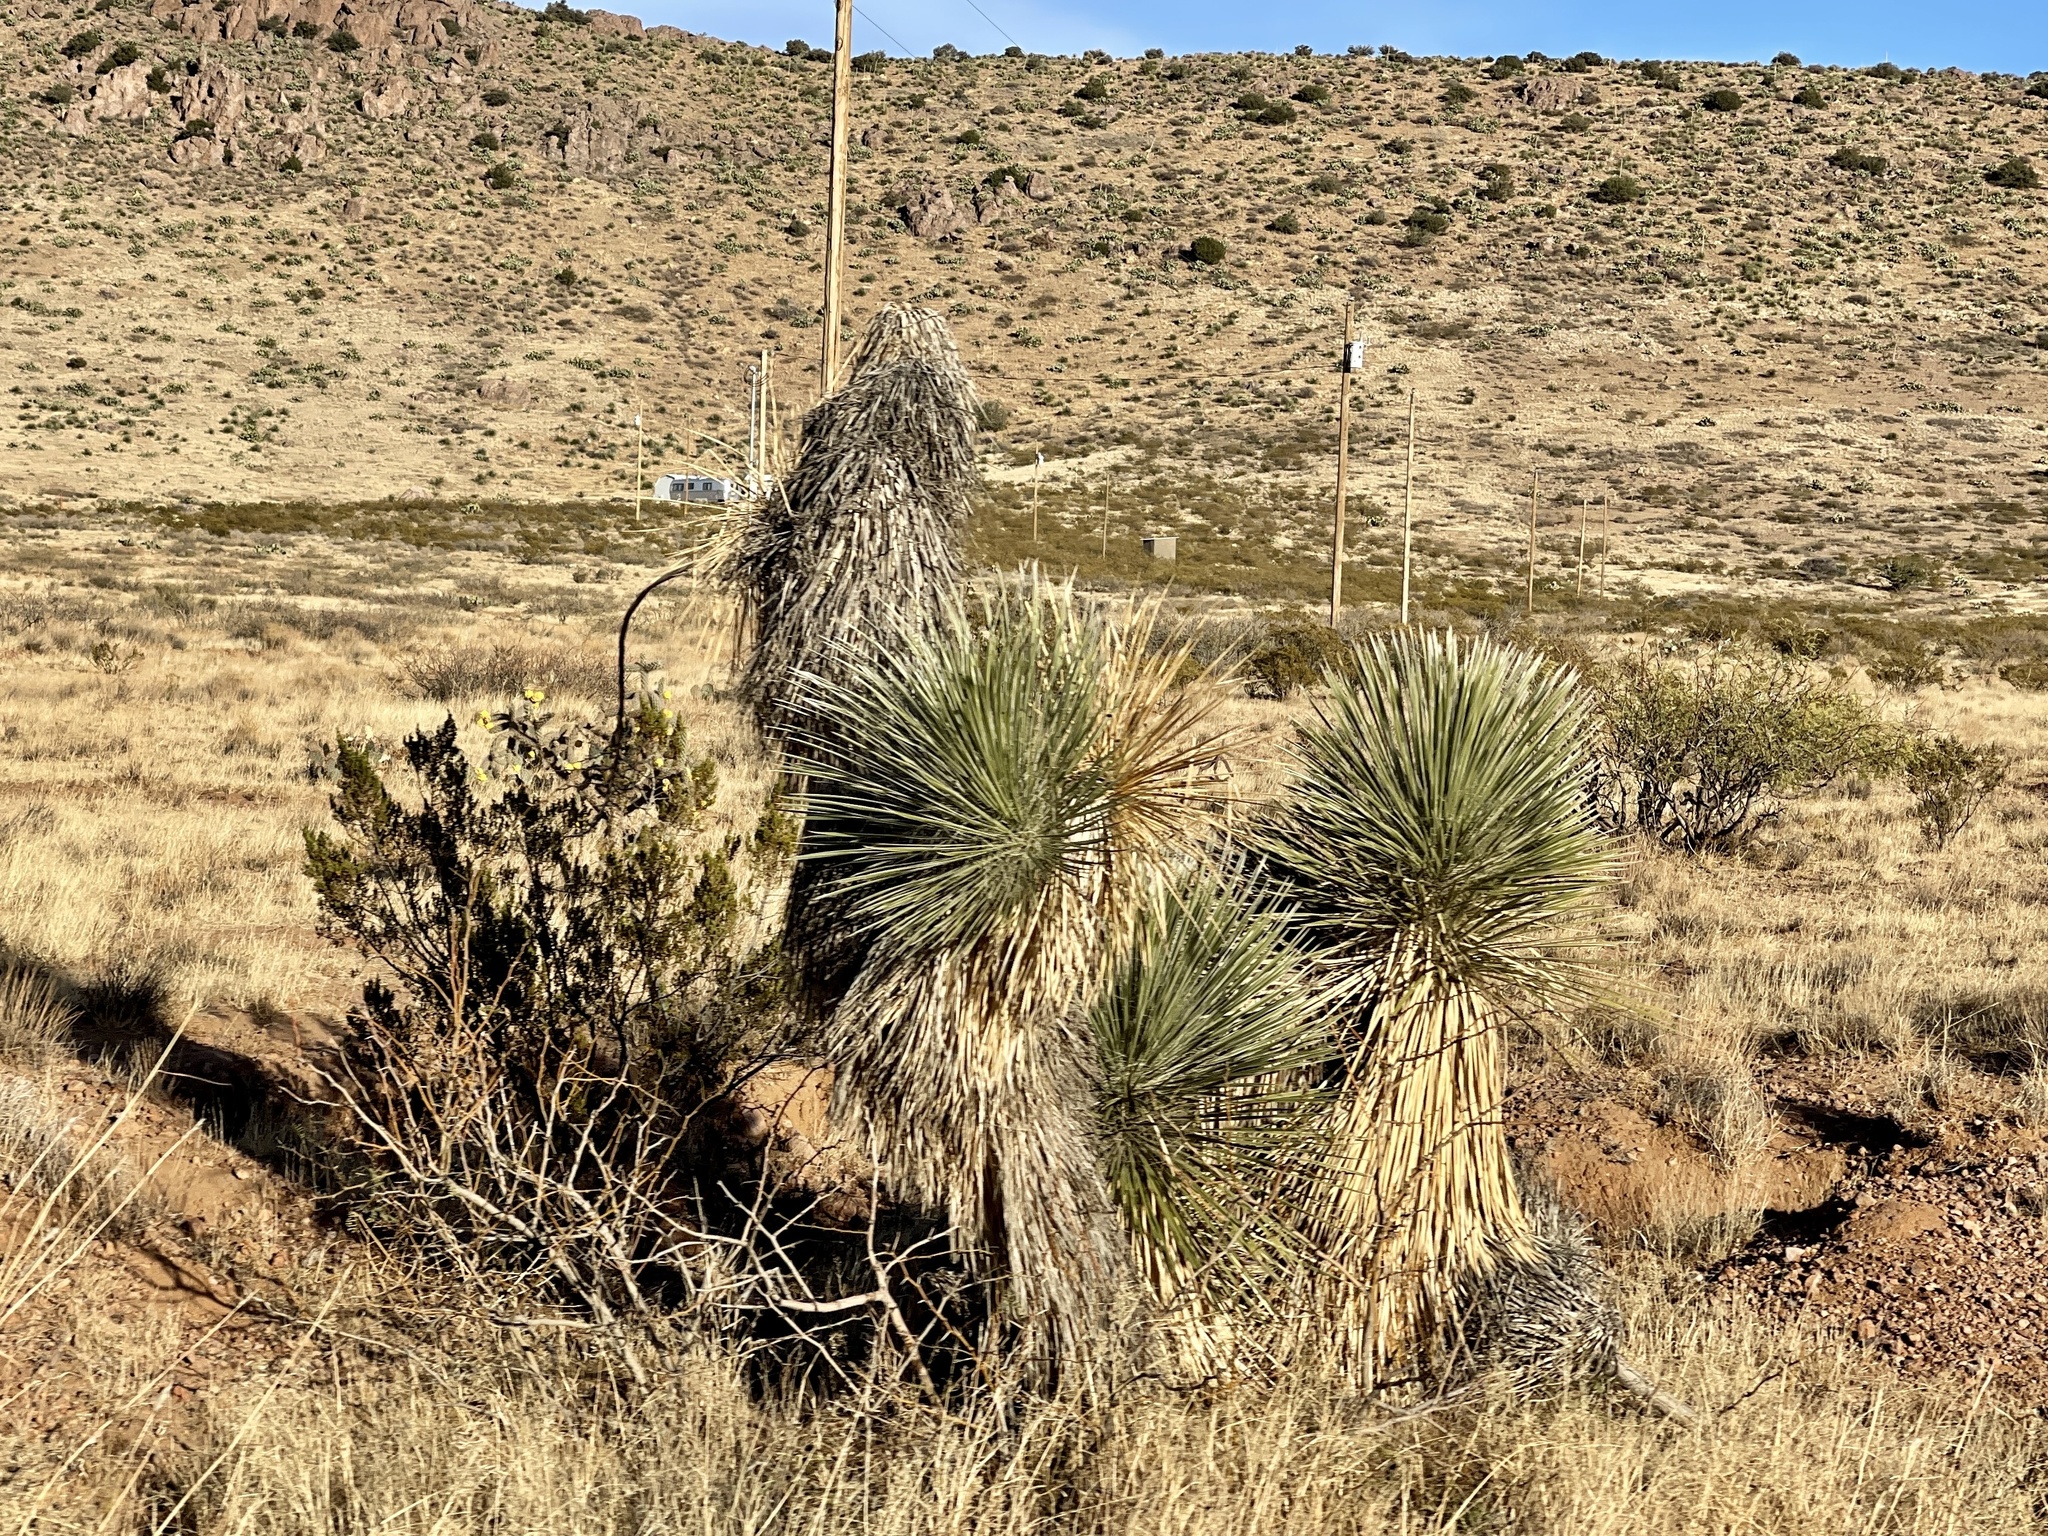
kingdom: Plantae
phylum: Tracheophyta
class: Liliopsida
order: Asparagales
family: Asparagaceae
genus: Yucca
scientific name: Yucca elata
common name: Palmella
